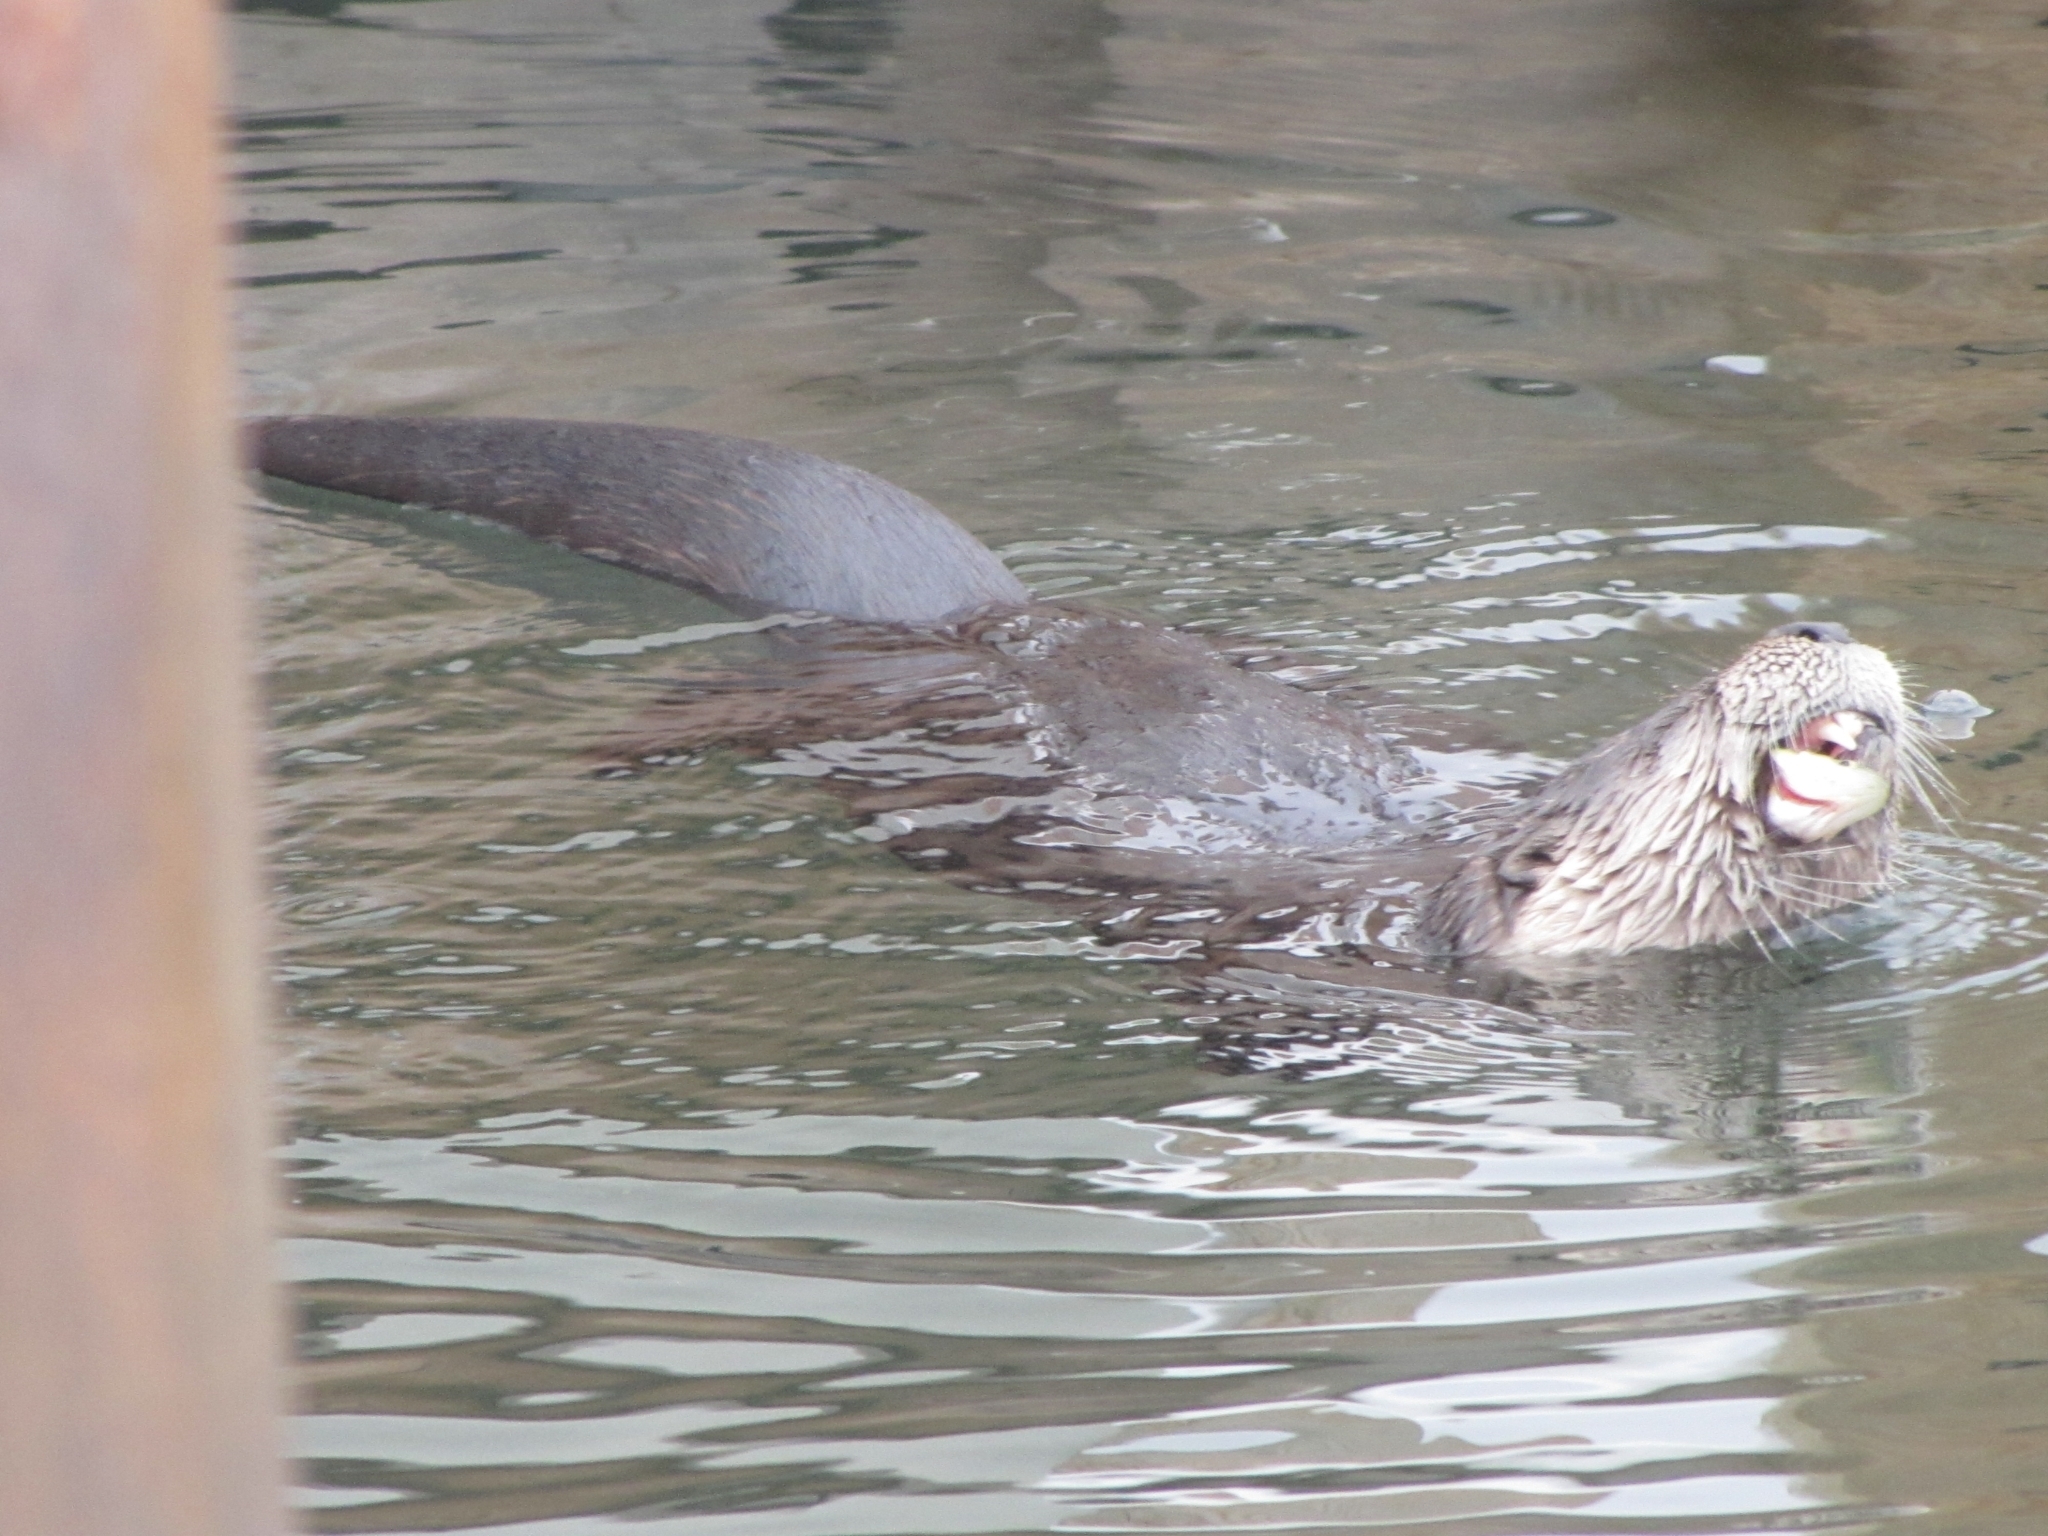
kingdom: Animalia
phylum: Chordata
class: Mammalia
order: Carnivora
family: Mustelidae
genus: Lontra
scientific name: Lontra canadensis
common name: North american river otter
